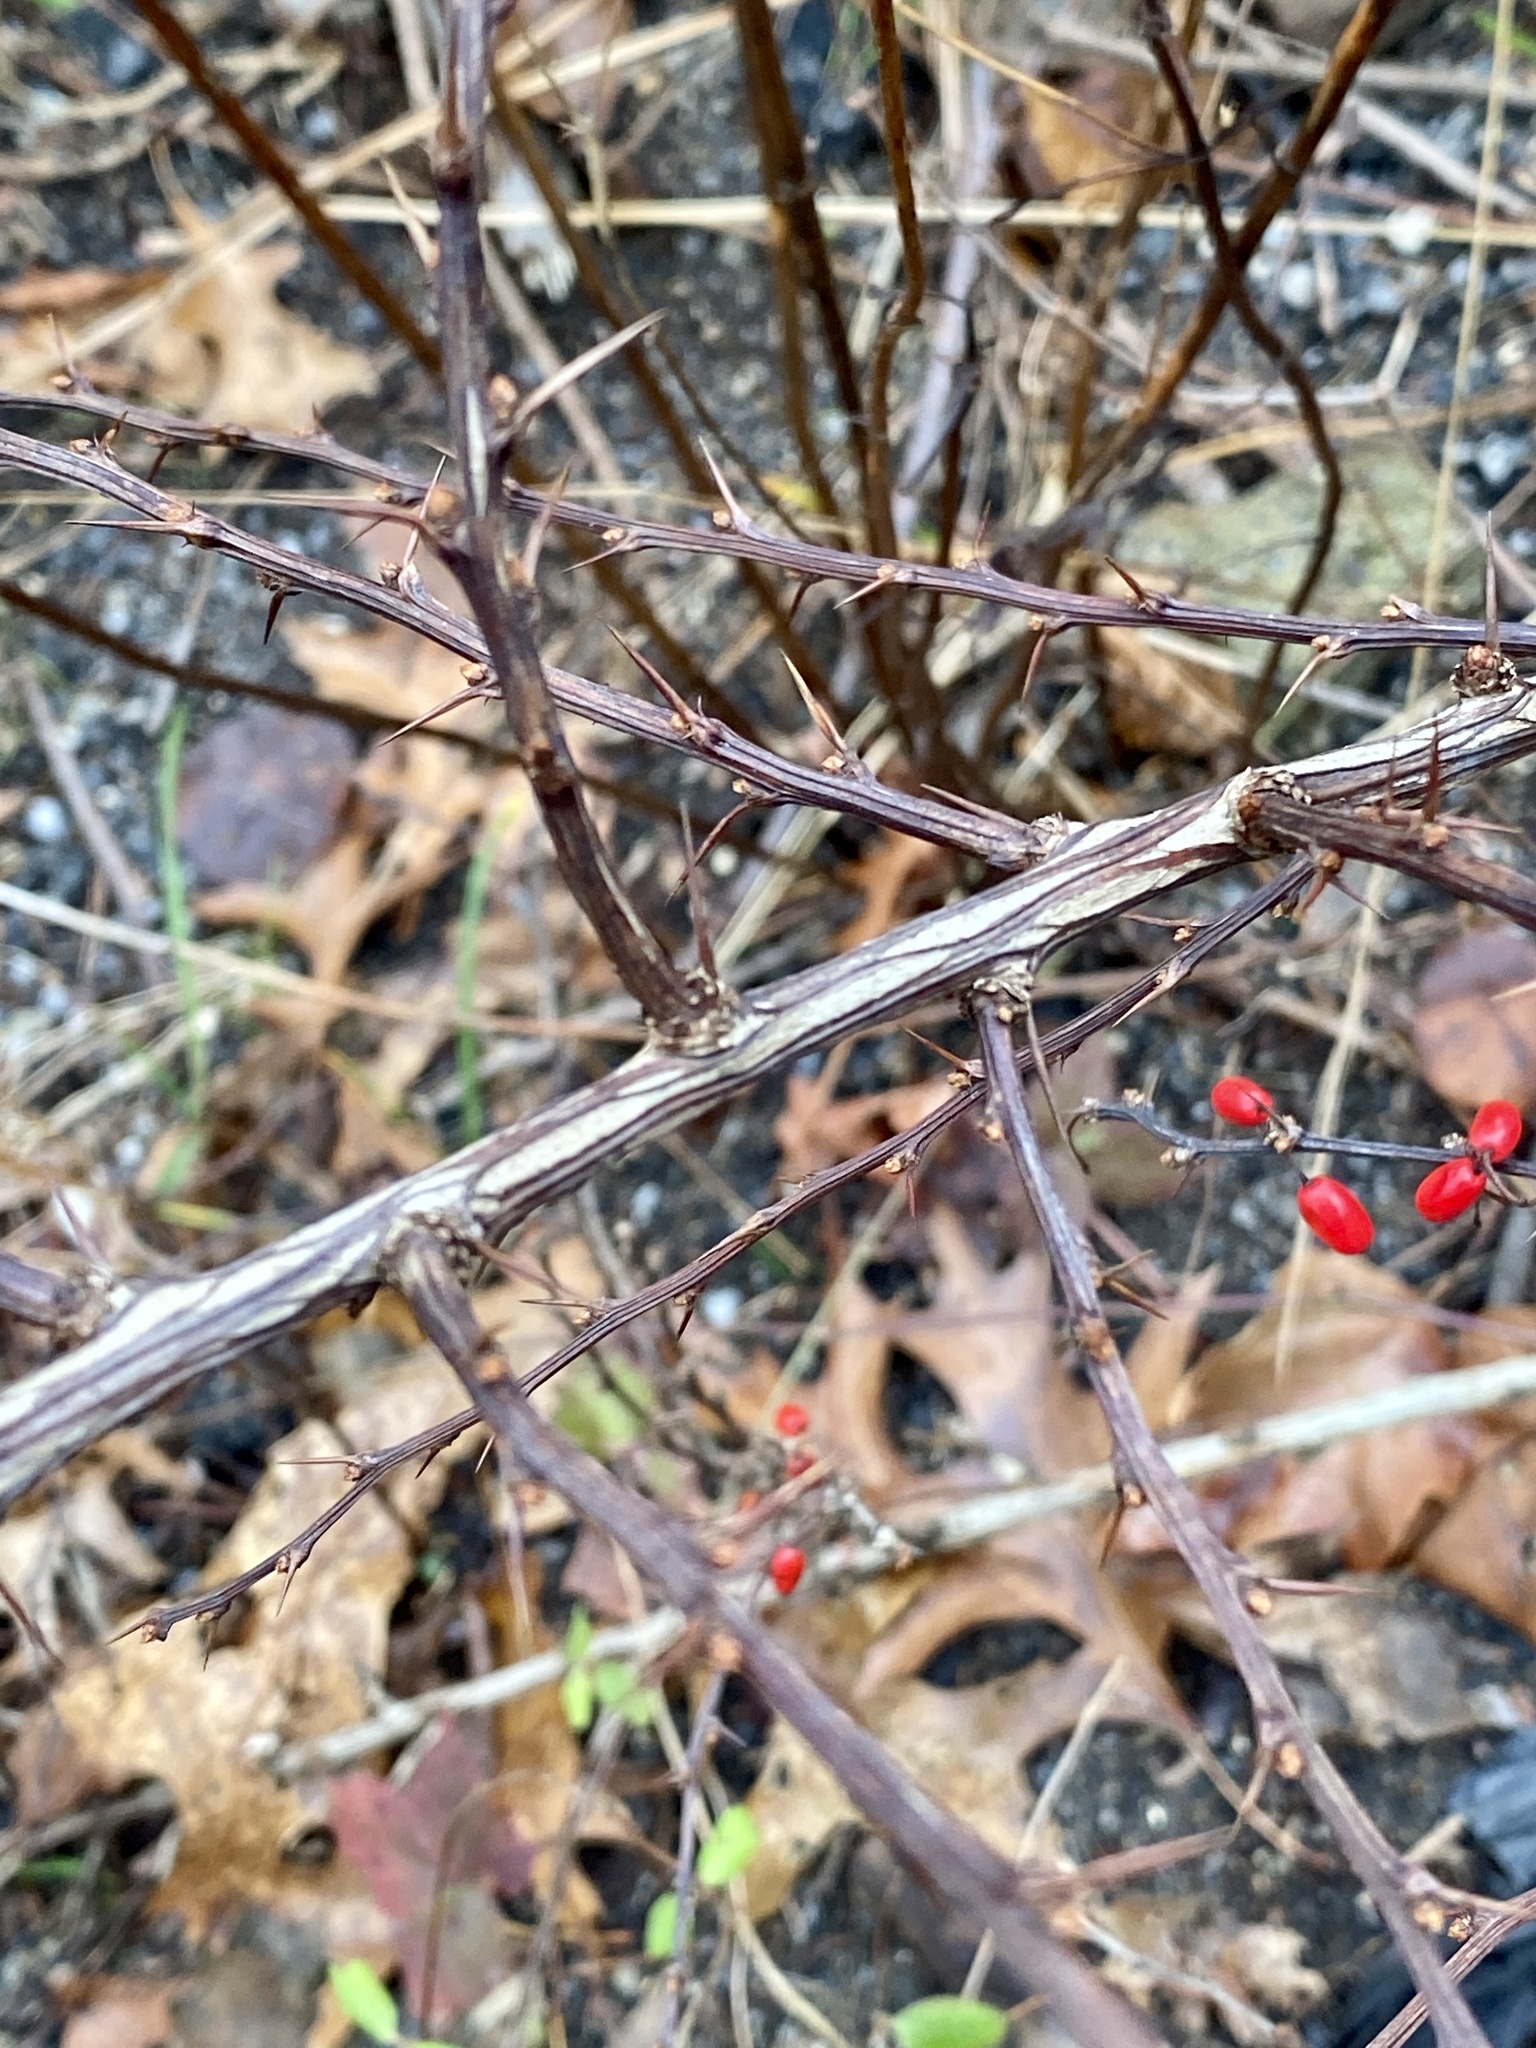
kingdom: Plantae
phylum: Tracheophyta
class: Magnoliopsida
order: Ranunculales
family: Berberidaceae
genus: Berberis
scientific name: Berberis thunbergii
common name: Japanese barberry
